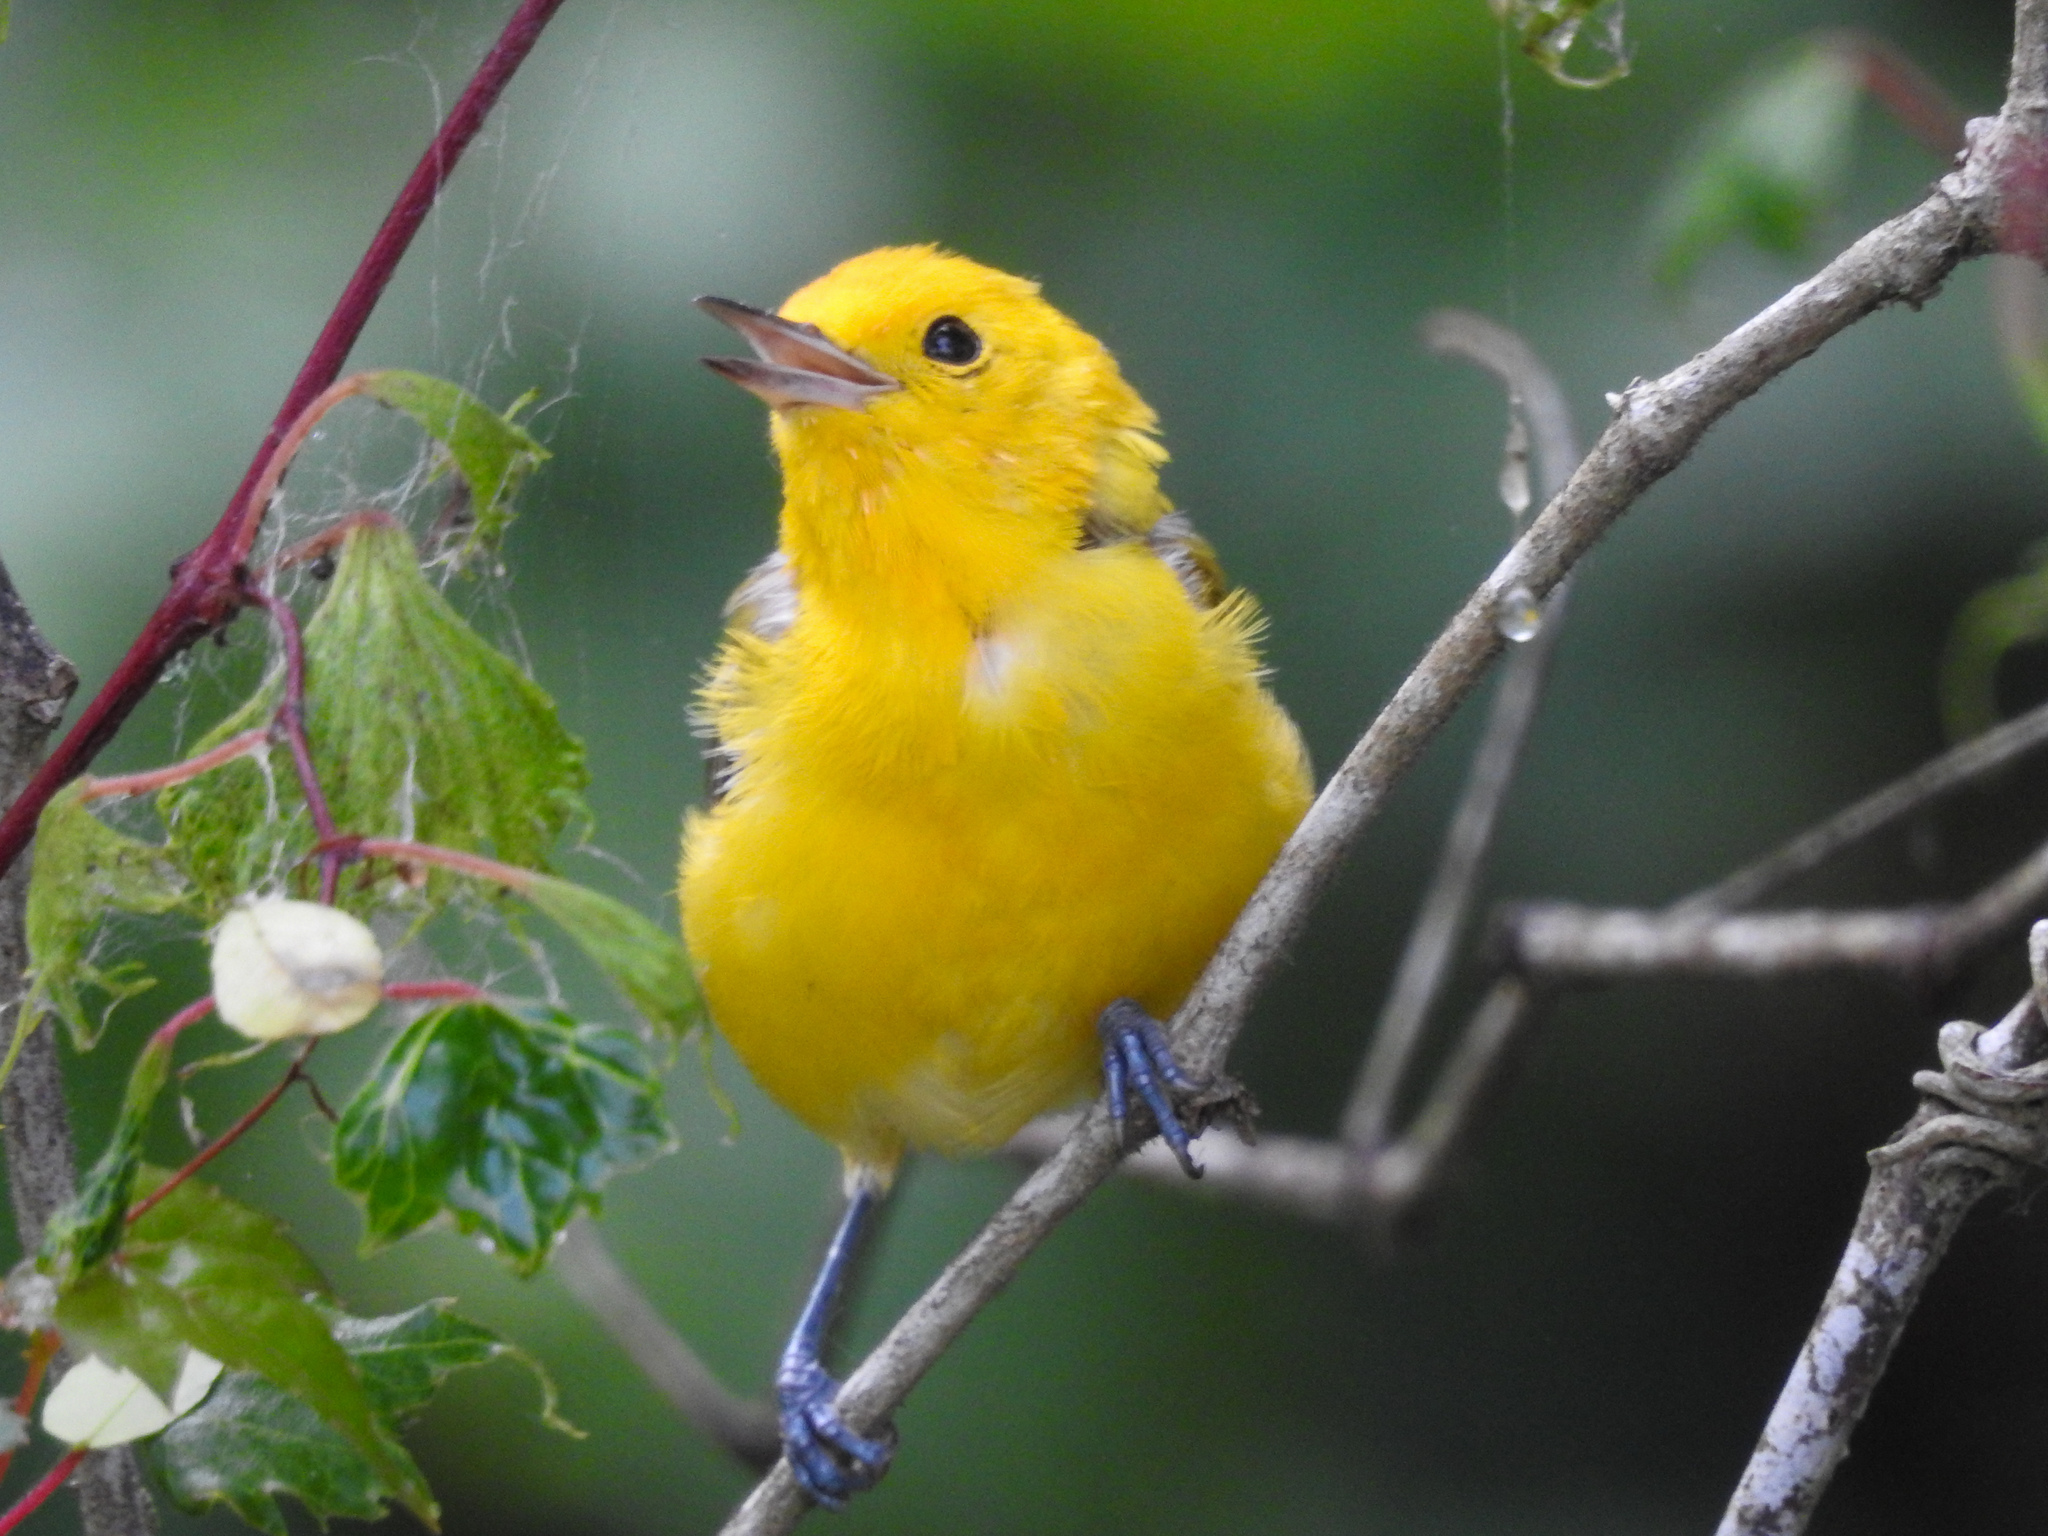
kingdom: Animalia
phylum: Chordata
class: Aves
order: Passeriformes
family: Parulidae
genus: Protonotaria
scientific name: Protonotaria citrea
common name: Prothonotary warbler
